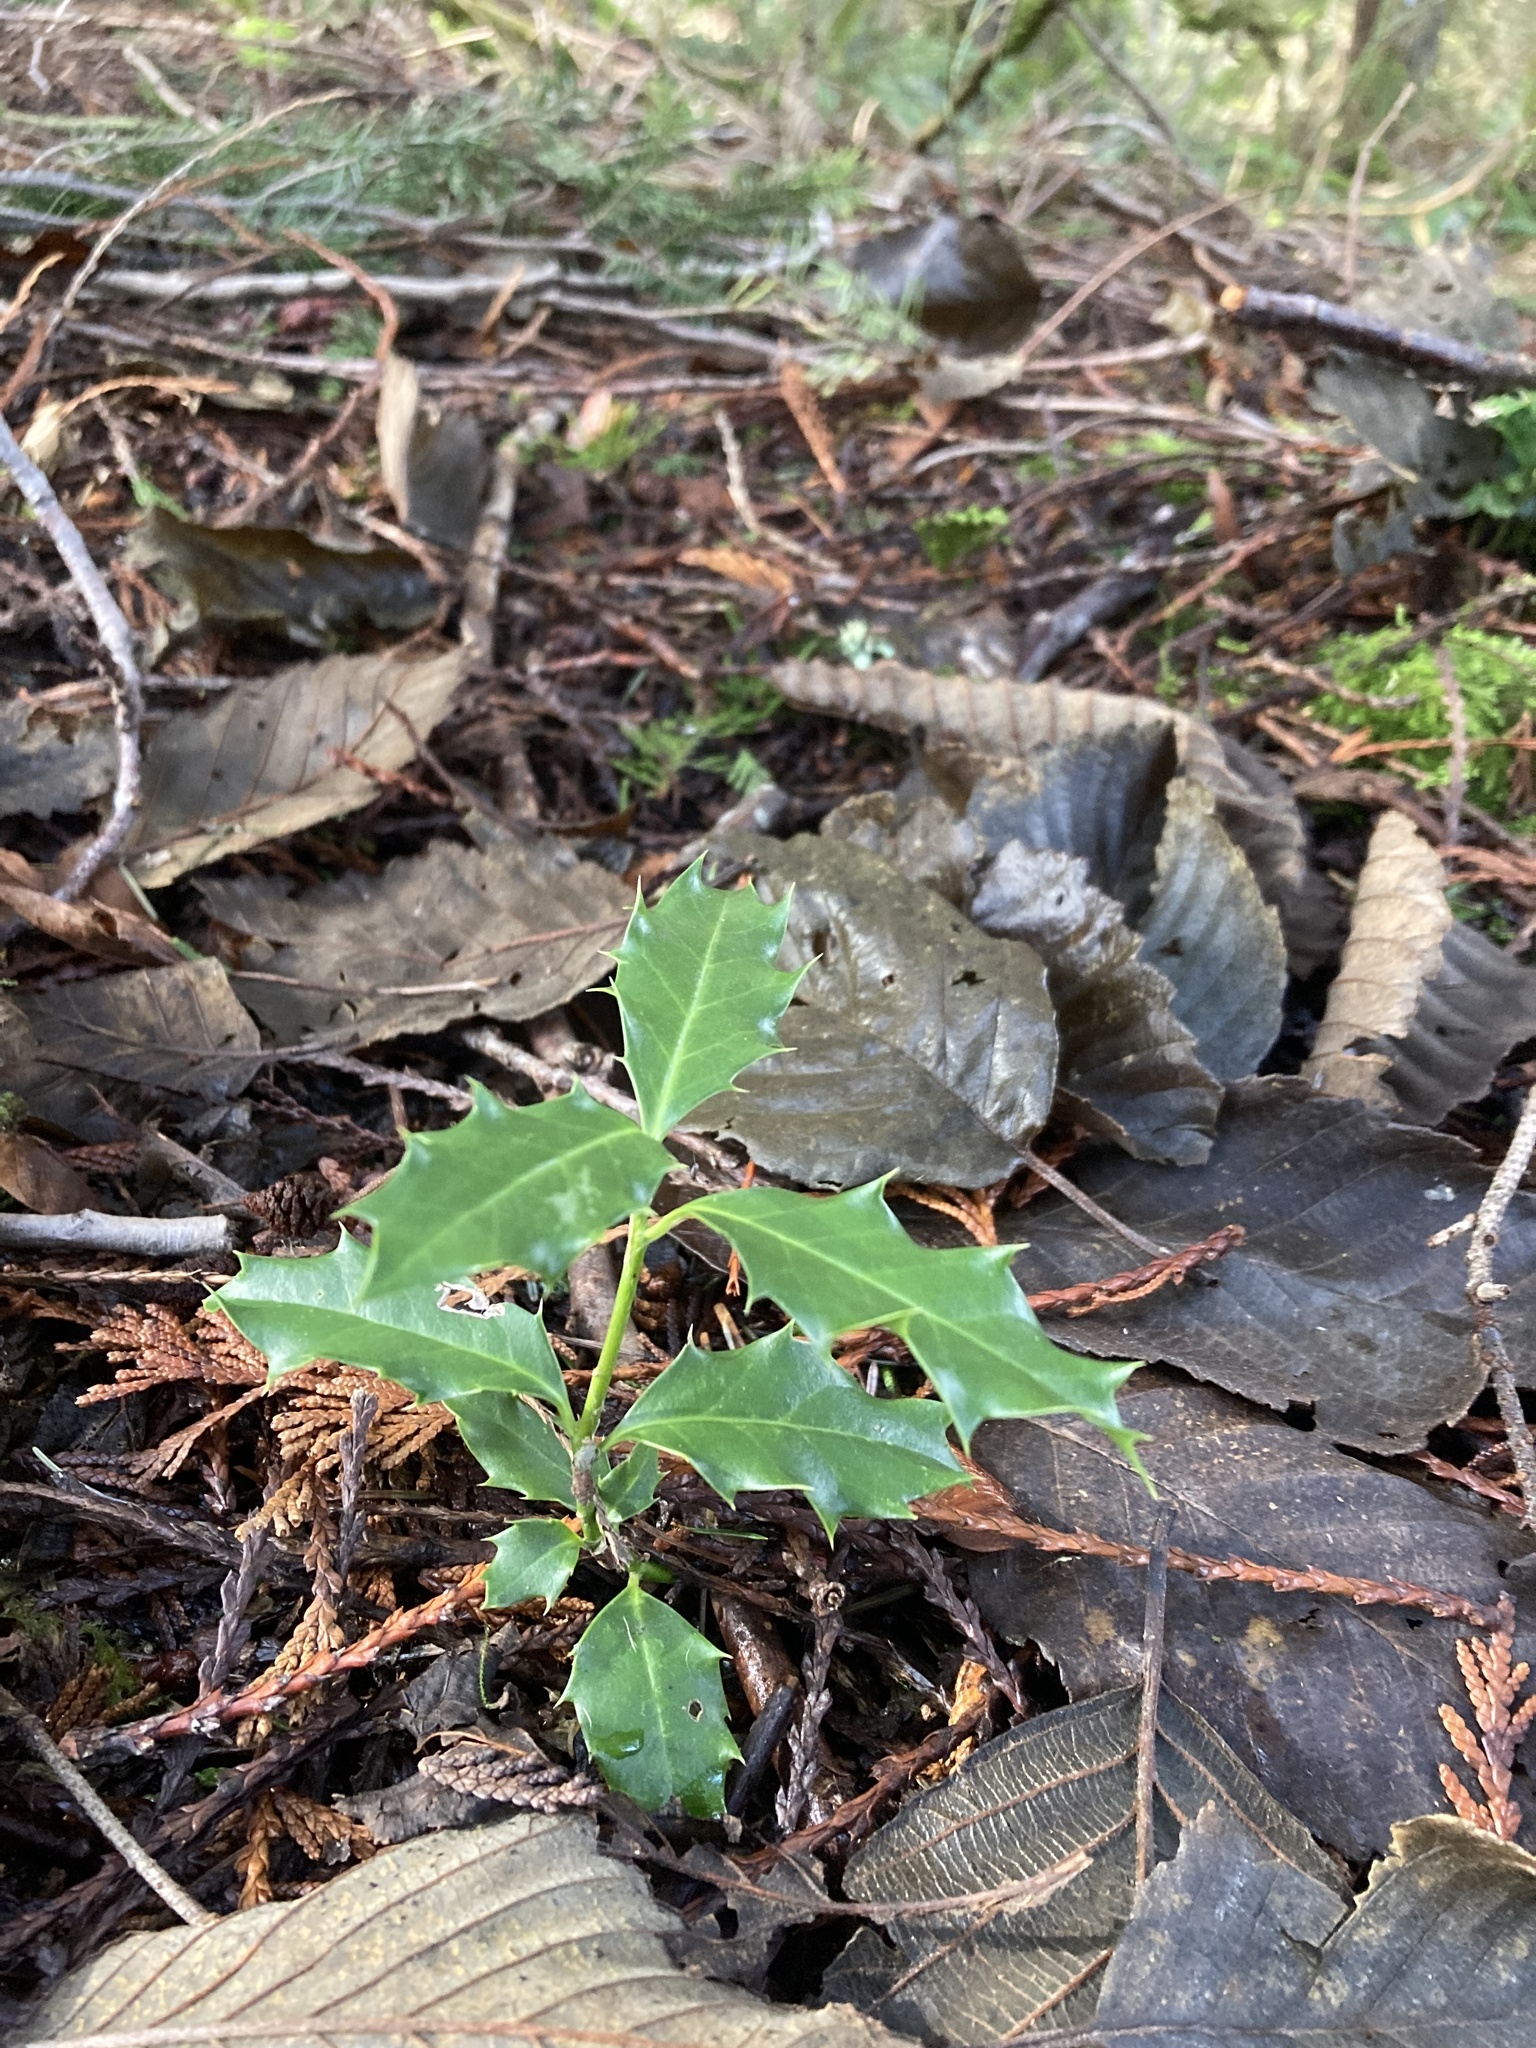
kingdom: Plantae
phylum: Tracheophyta
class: Magnoliopsida
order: Aquifoliales
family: Aquifoliaceae
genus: Ilex
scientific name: Ilex aquifolium
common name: English holly
